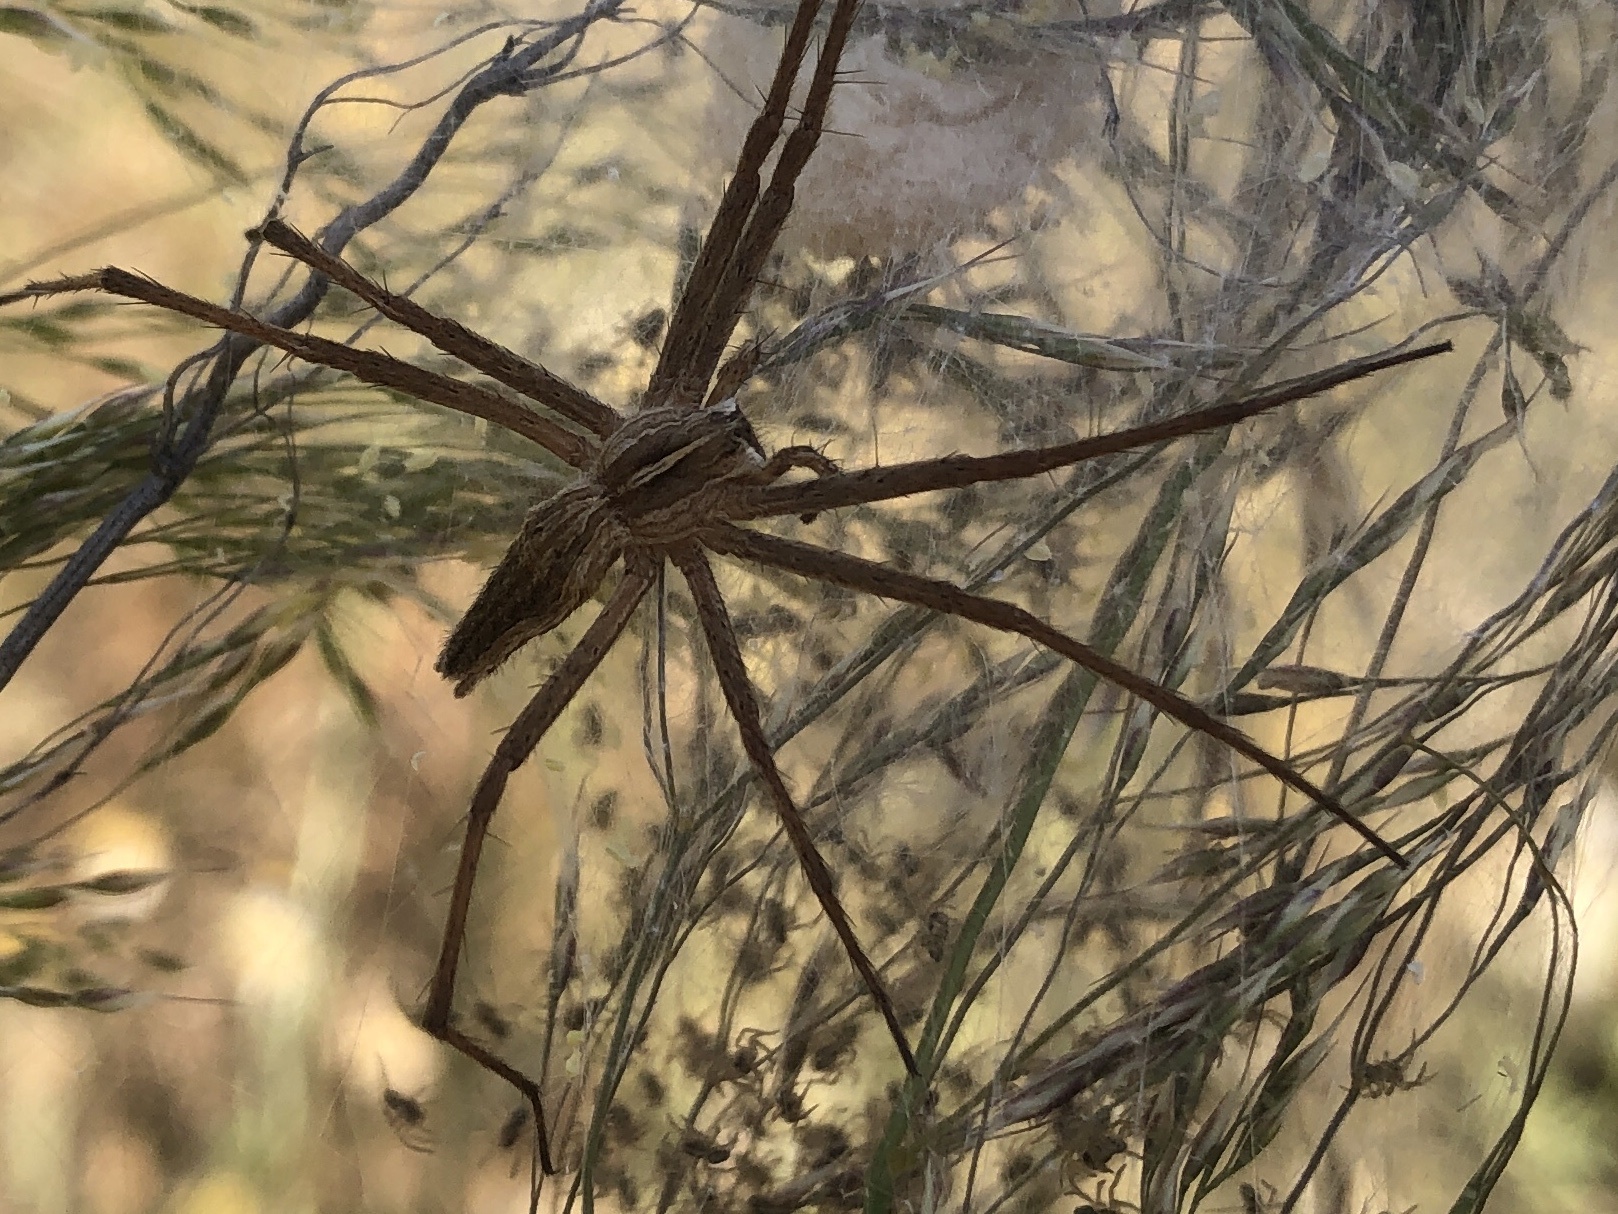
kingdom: Animalia
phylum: Arthropoda
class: Arachnida
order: Araneae
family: Pisauridae
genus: Pisaura
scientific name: Pisaura mirabilis
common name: Tent spider
